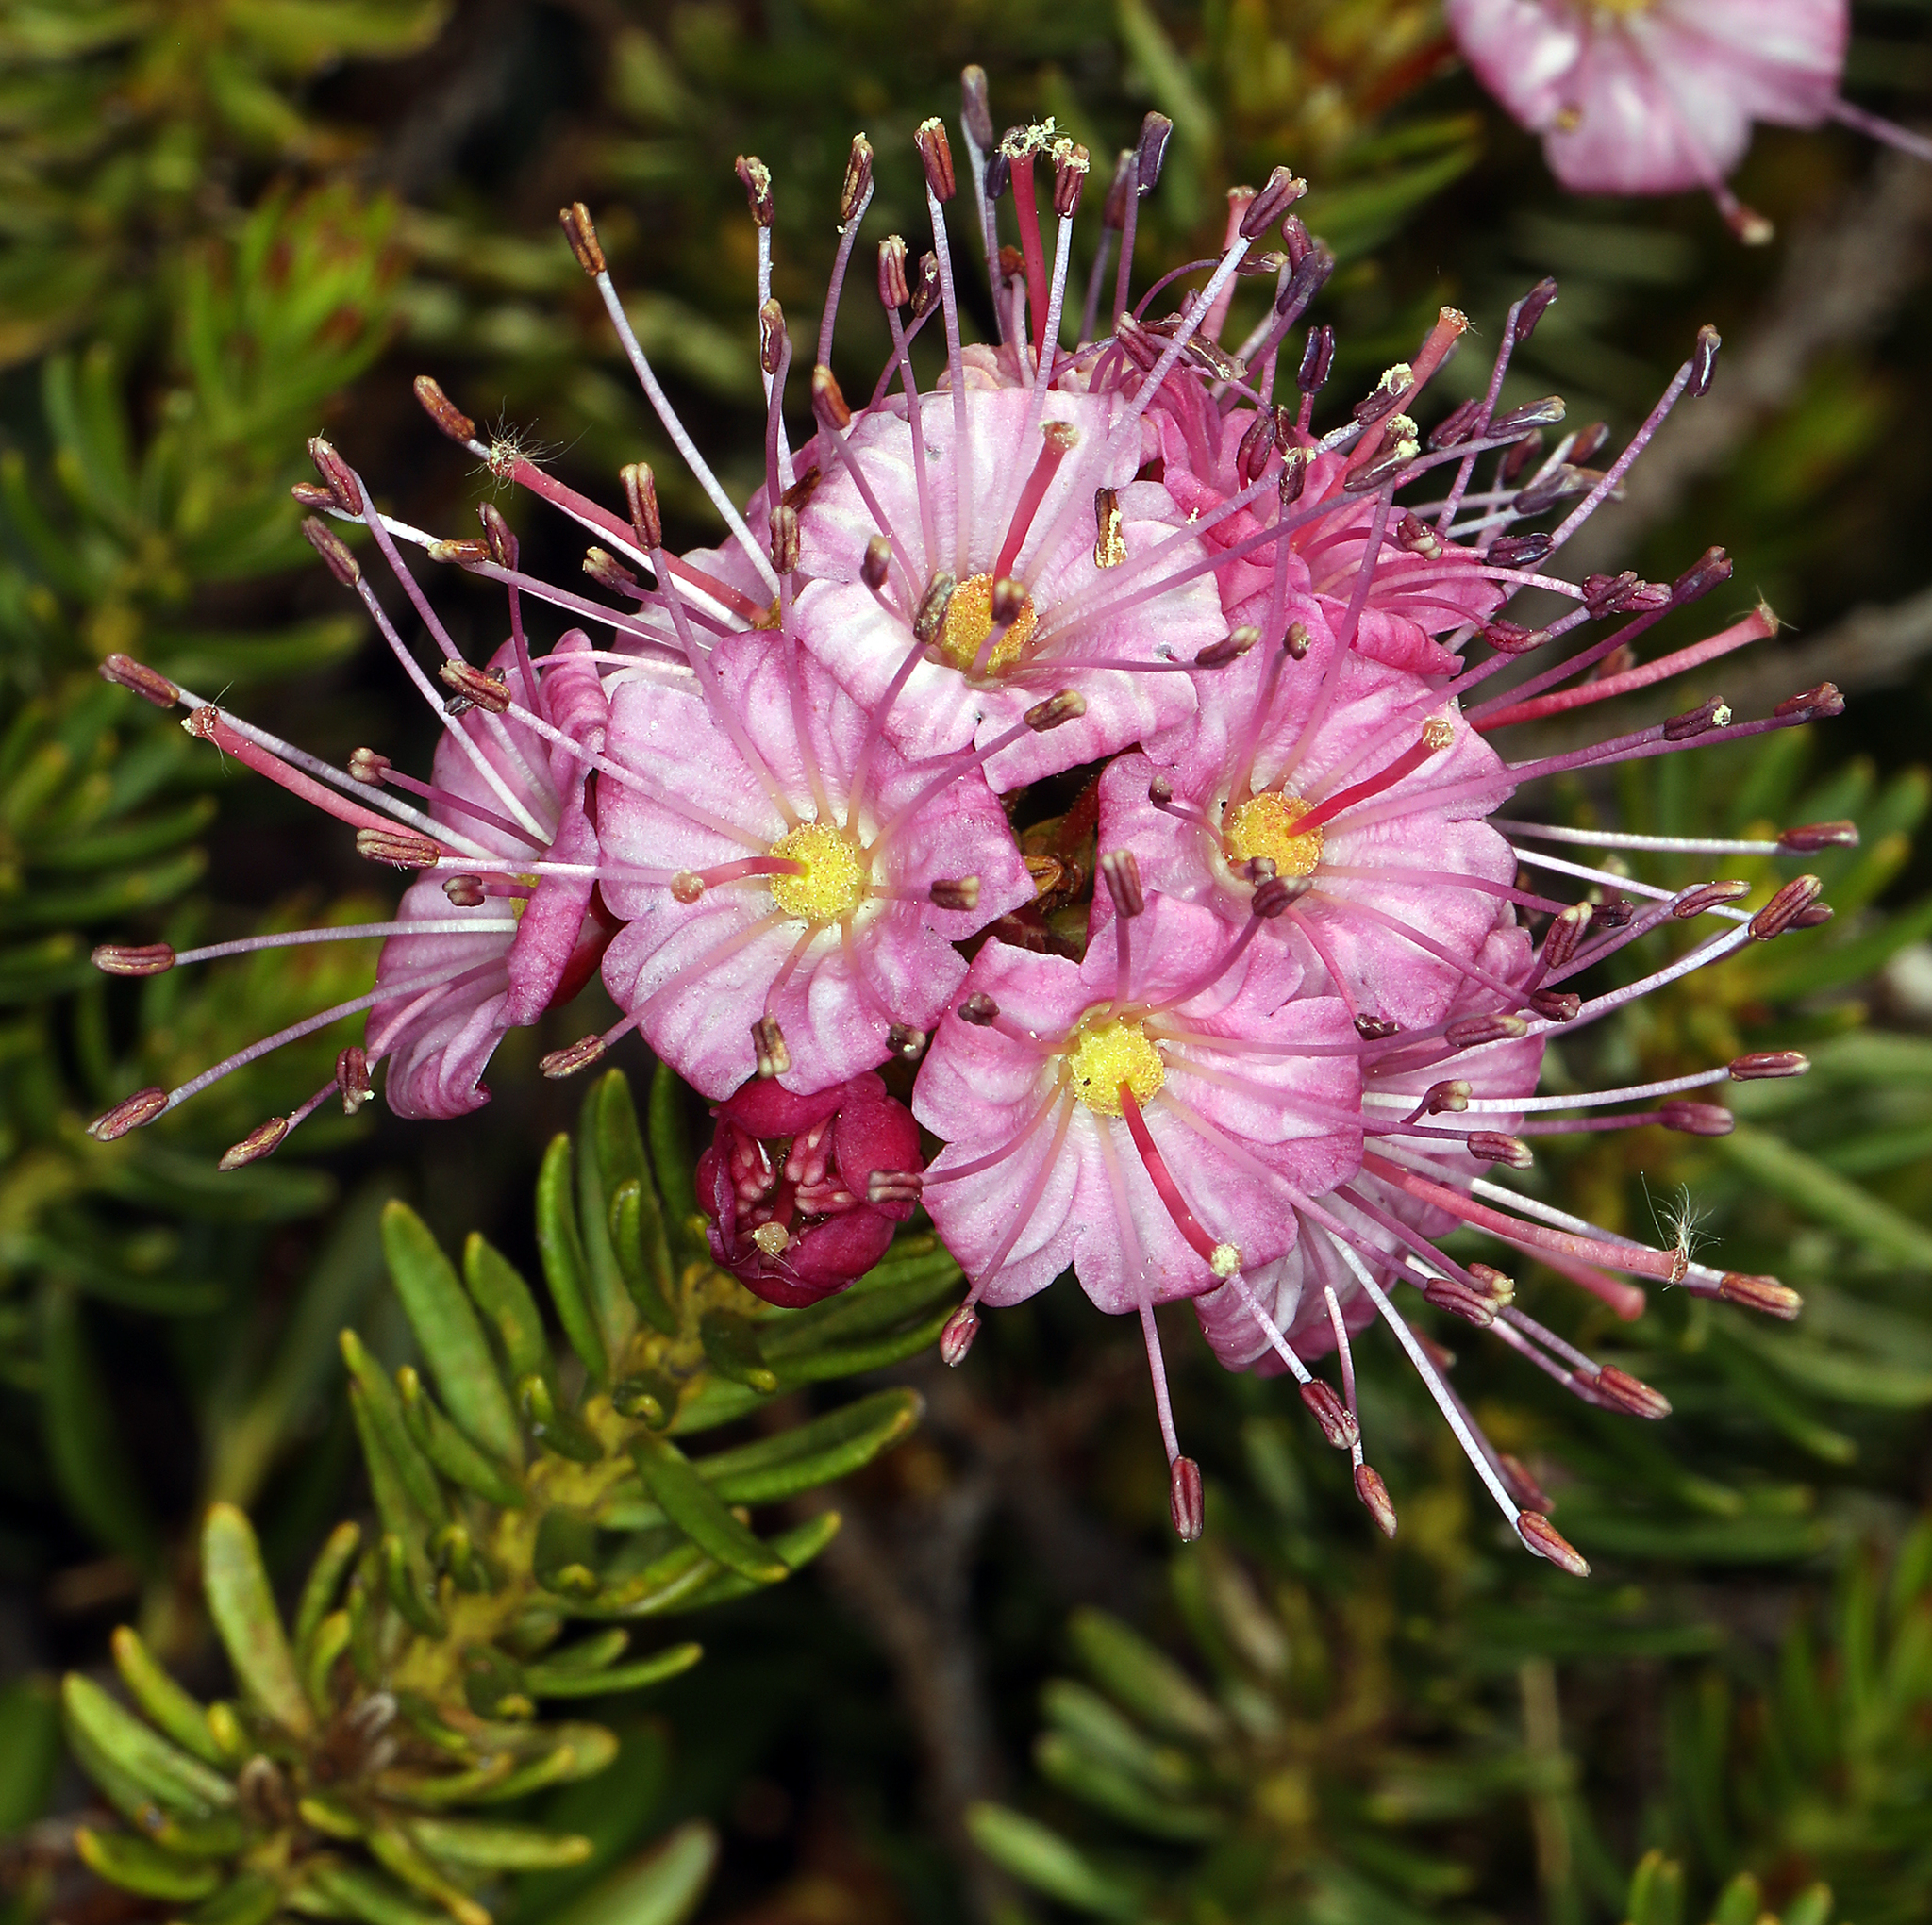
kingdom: Plantae
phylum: Tracheophyta
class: Magnoliopsida
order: Ericales
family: Ericaceae
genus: Phyllodoce
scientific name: Phyllodoce breweri
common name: Brewer's mountain-heather
